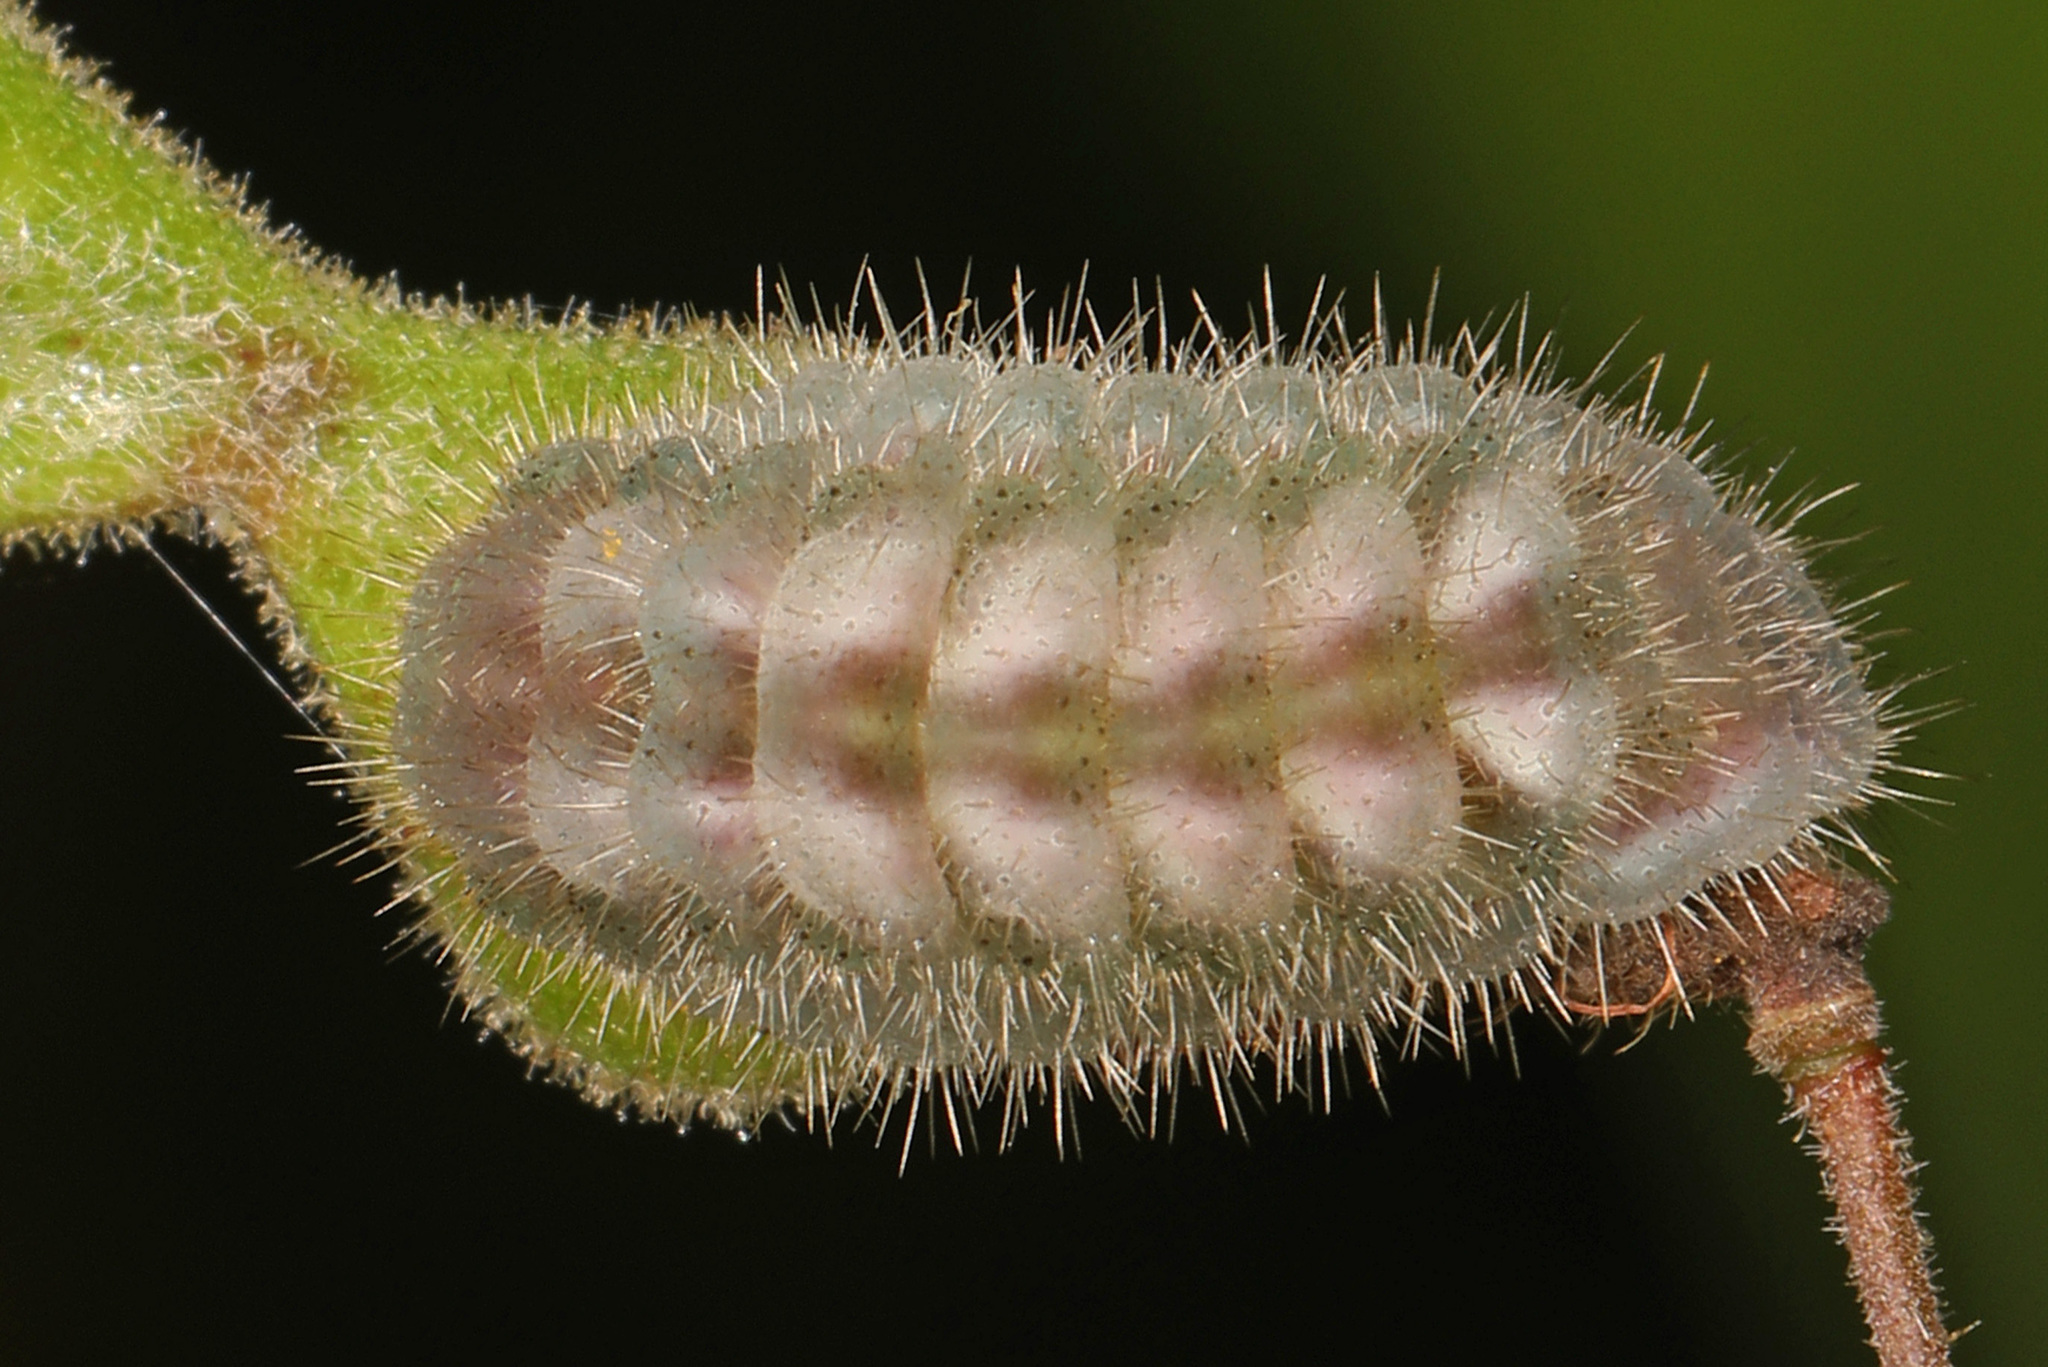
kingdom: Animalia
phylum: Arthropoda
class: Insecta
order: Lepidoptera
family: Lycaenidae
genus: Strymon
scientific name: Strymon melinus
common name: Gray hairstreak
